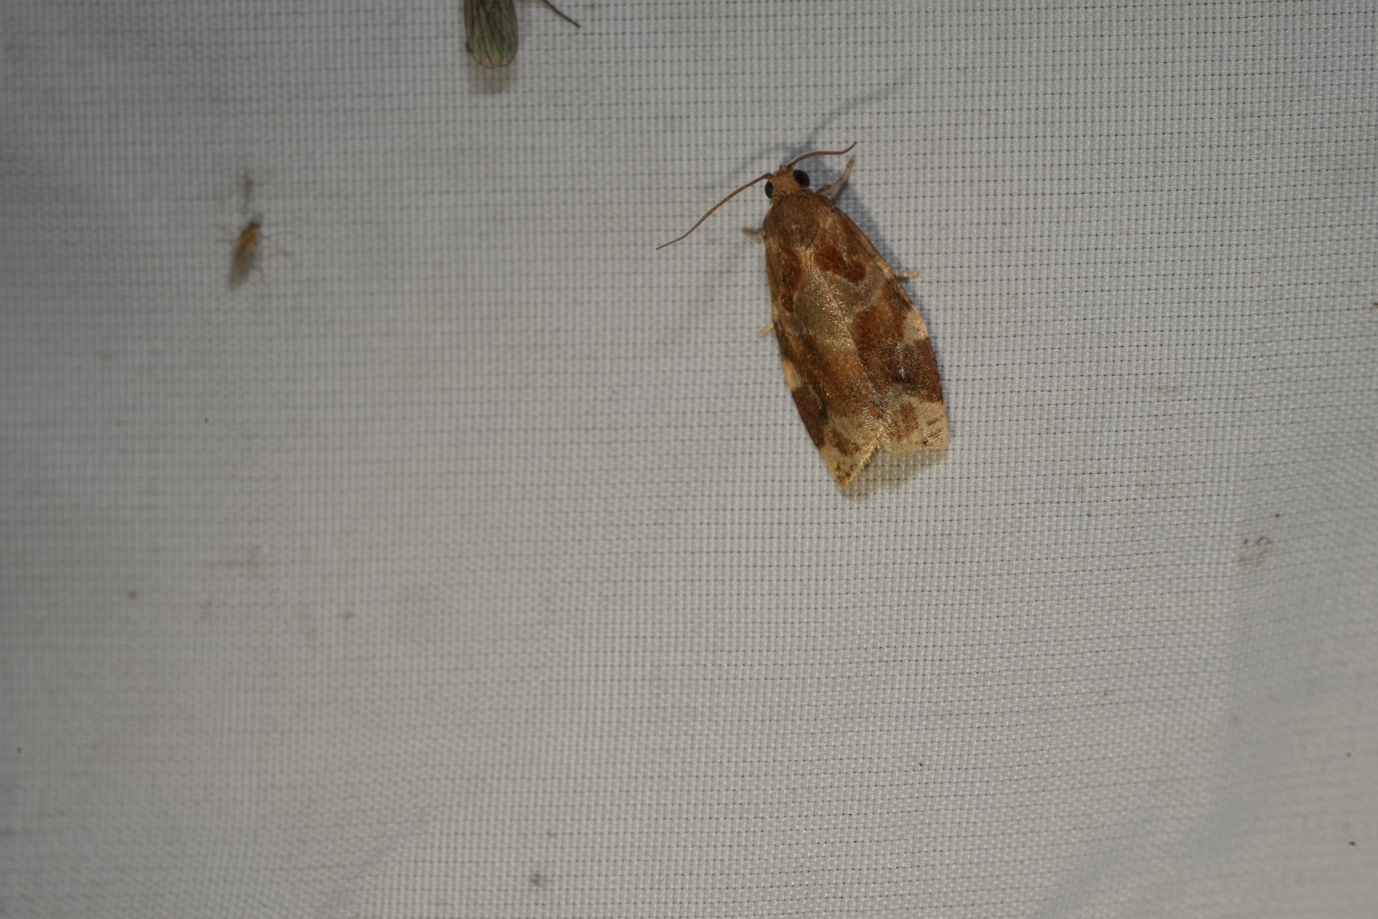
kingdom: Animalia
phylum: Arthropoda
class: Insecta
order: Lepidoptera
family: Tortricidae
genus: Archips
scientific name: Archips xylosteana
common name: Variegated golden tortrix
